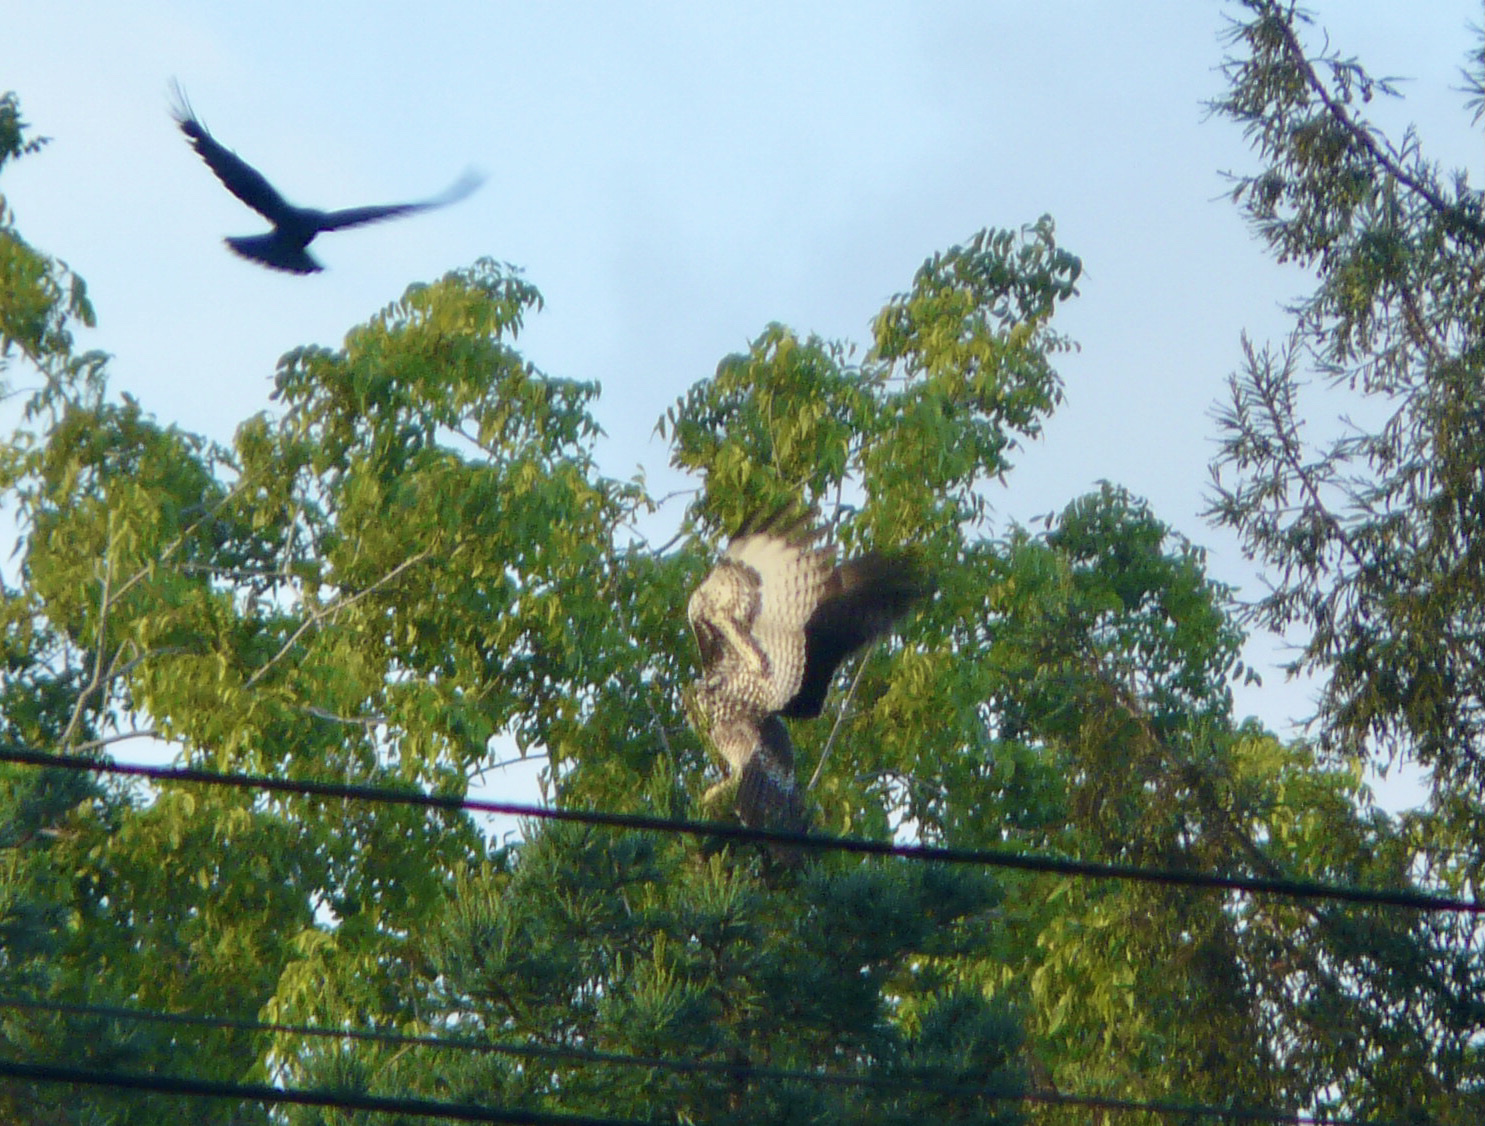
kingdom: Animalia
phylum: Chordata
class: Aves
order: Accipitriformes
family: Accipitridae
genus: Buteo
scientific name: Buteo jamaicensis
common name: Red-tailed hawk
